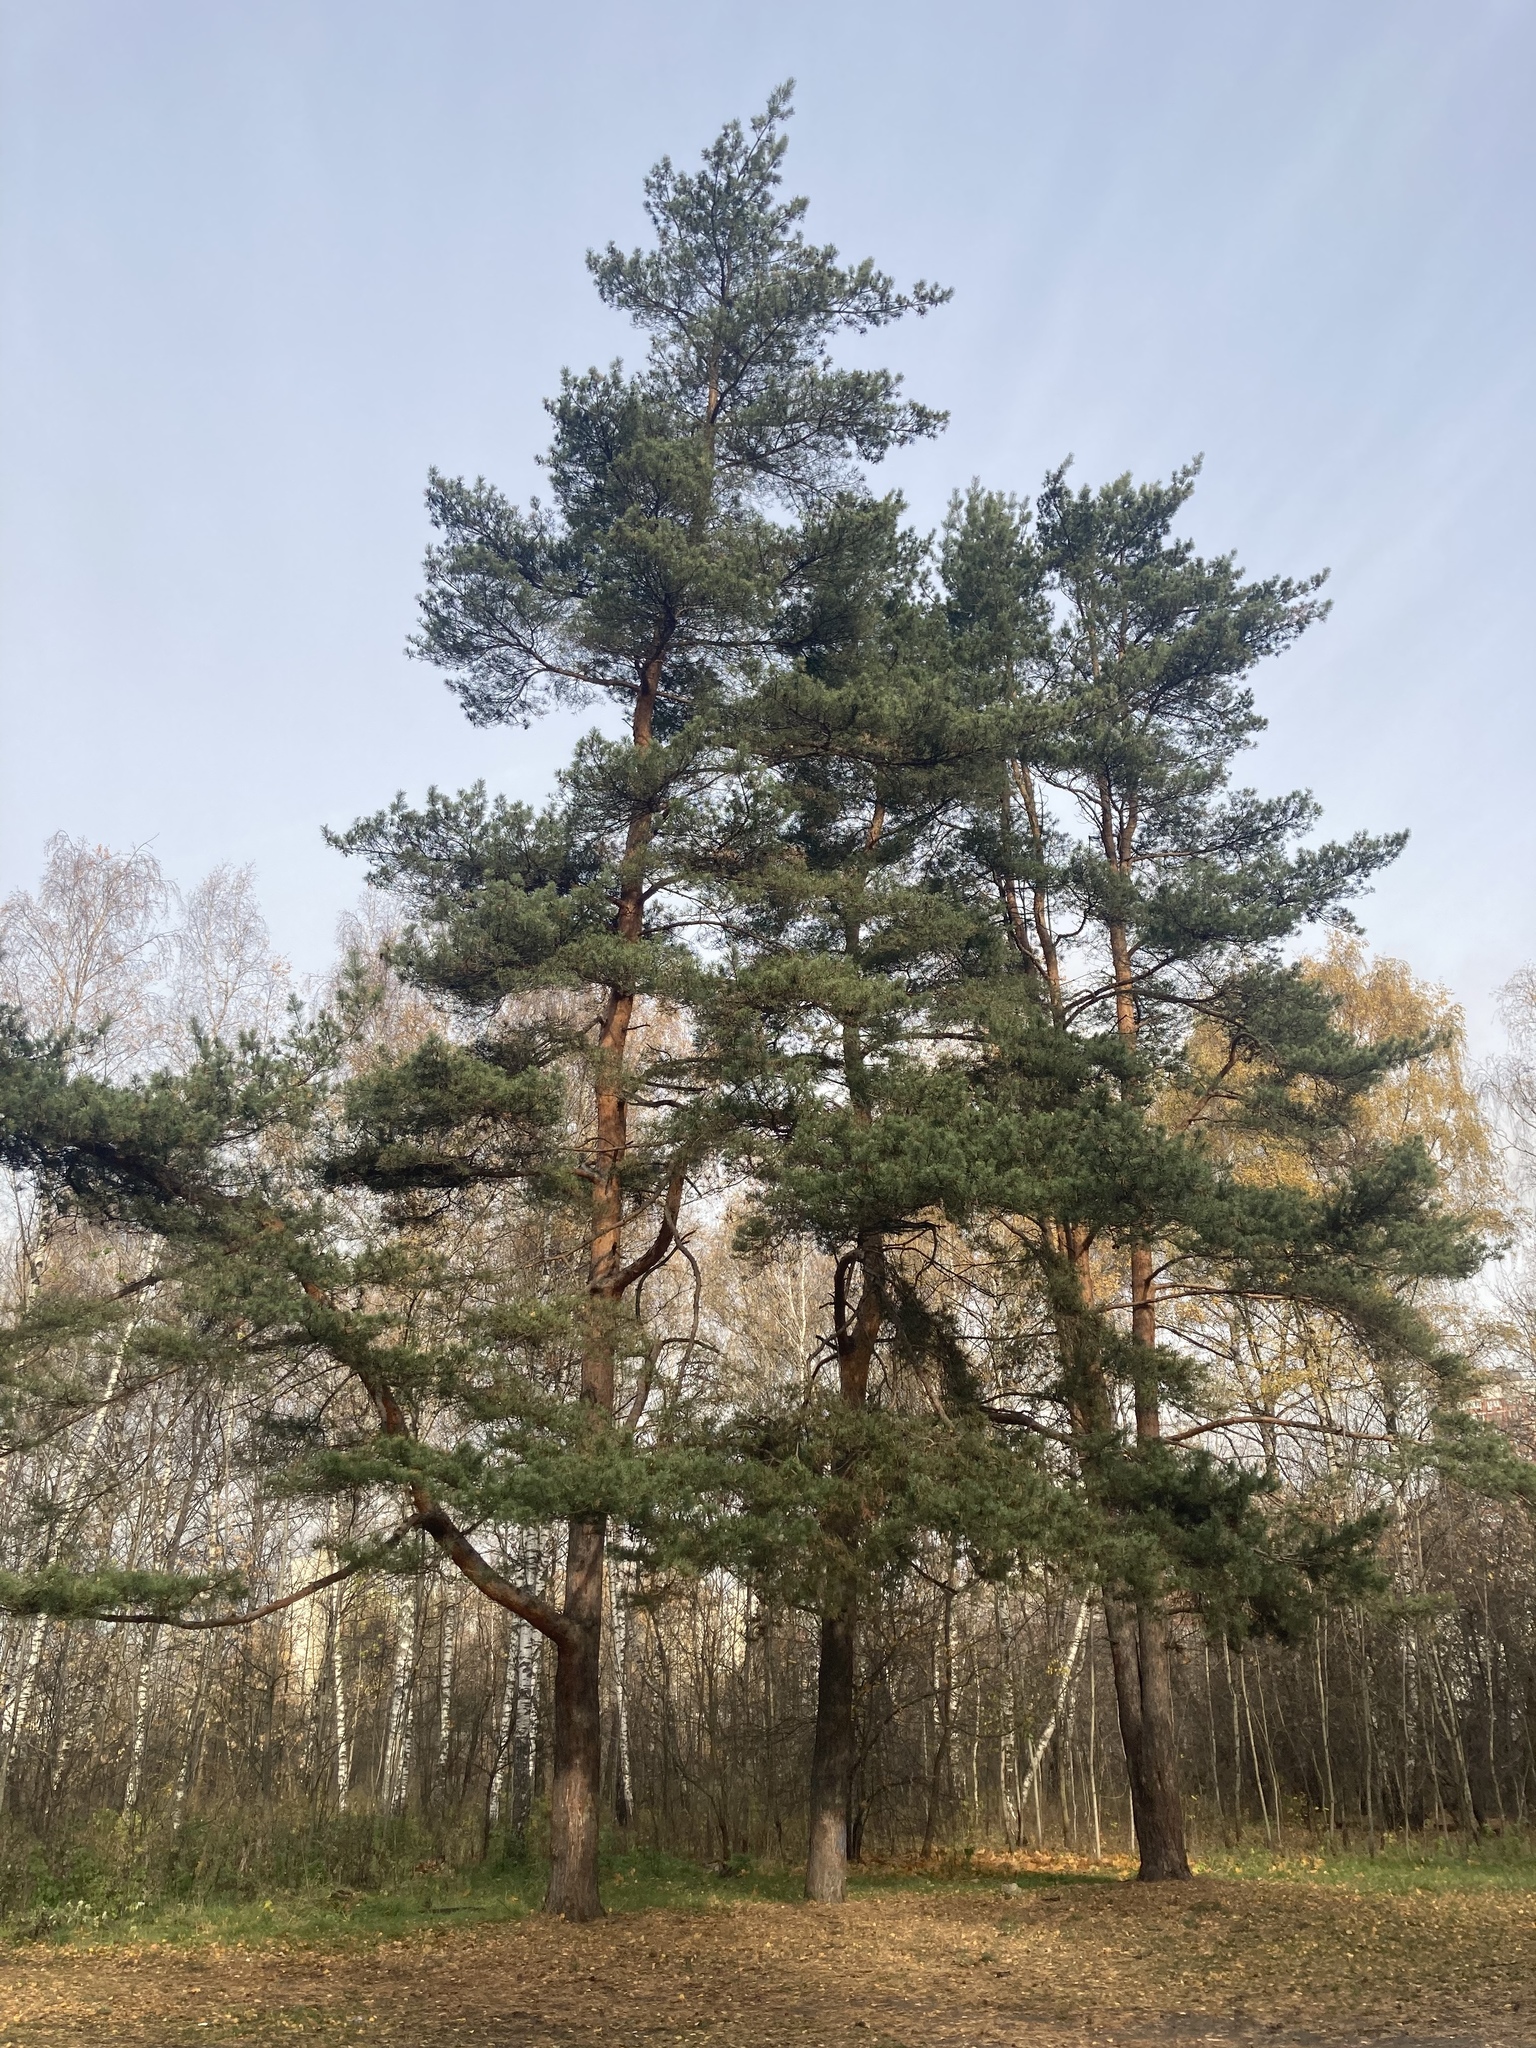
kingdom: Plantae
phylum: Tracheophyta
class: Pinopsida
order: Pinales
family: Pinaceae
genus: Pinus
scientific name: Pinus sylvestris
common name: Scots pine
